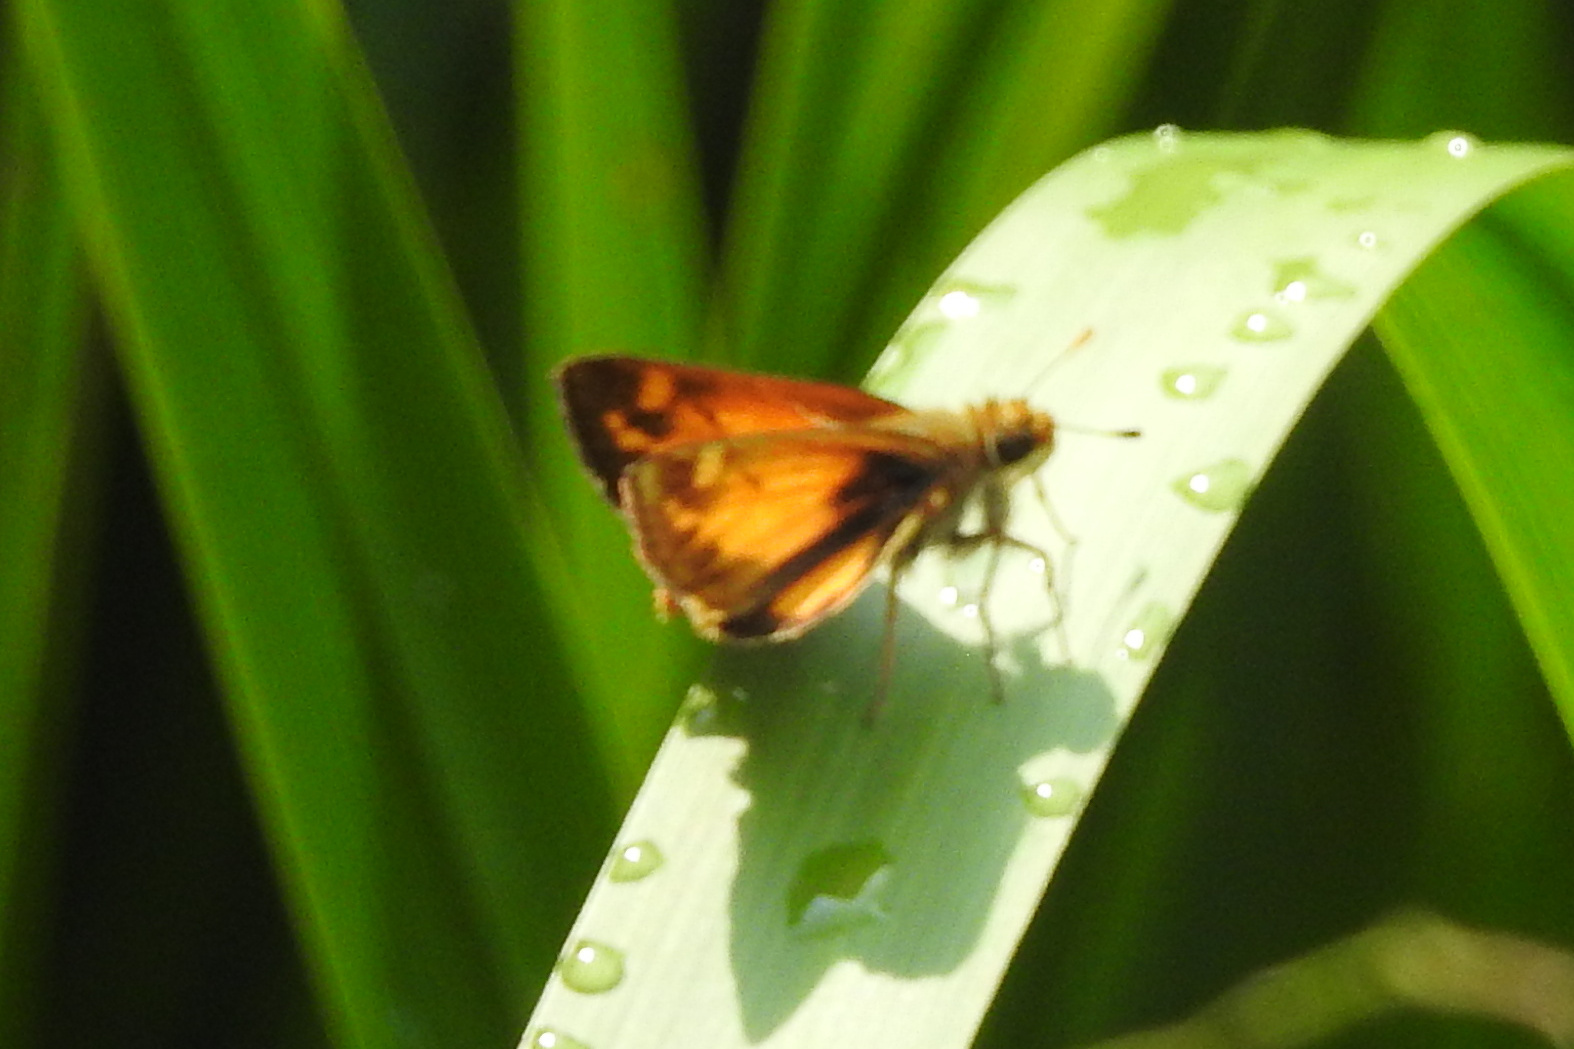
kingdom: Animalia
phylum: Arthropoda
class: Insecta
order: Lepidoptera
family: Hesperiidae
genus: Lon
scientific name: Lon zabulon
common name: Zabulon skipper
